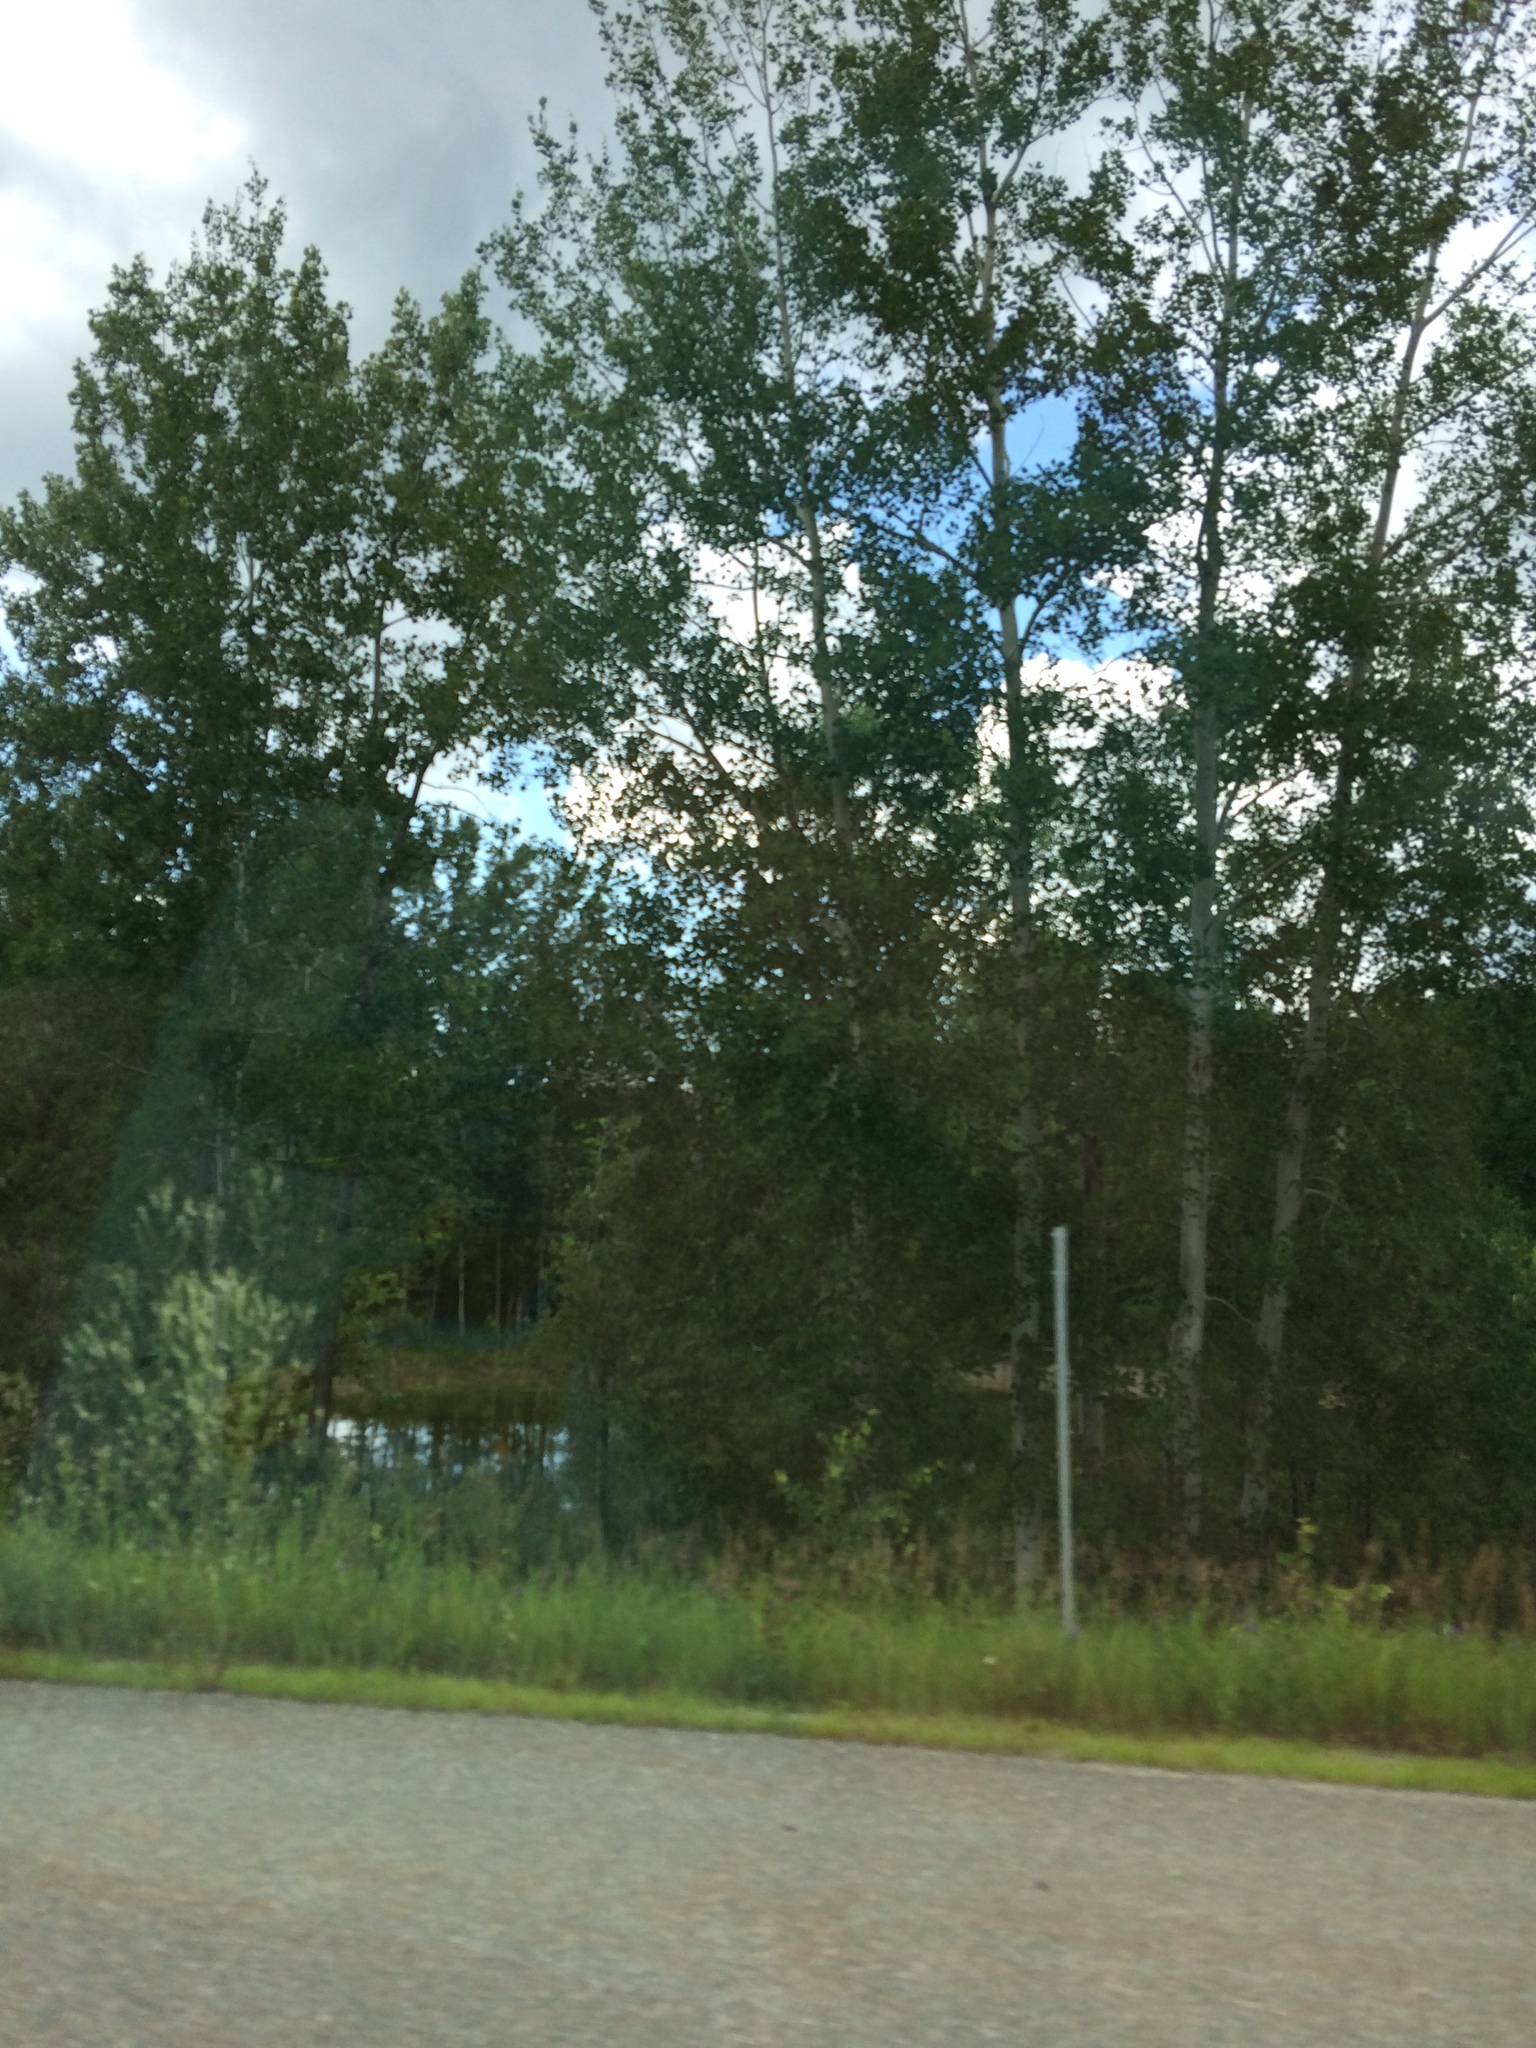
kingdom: Plantae
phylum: Tracheophyta
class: Magnoliopsida
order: Malpighiales
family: Salicaceae
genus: Populus
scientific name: Populus tremuloides
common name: Quaking aspen
